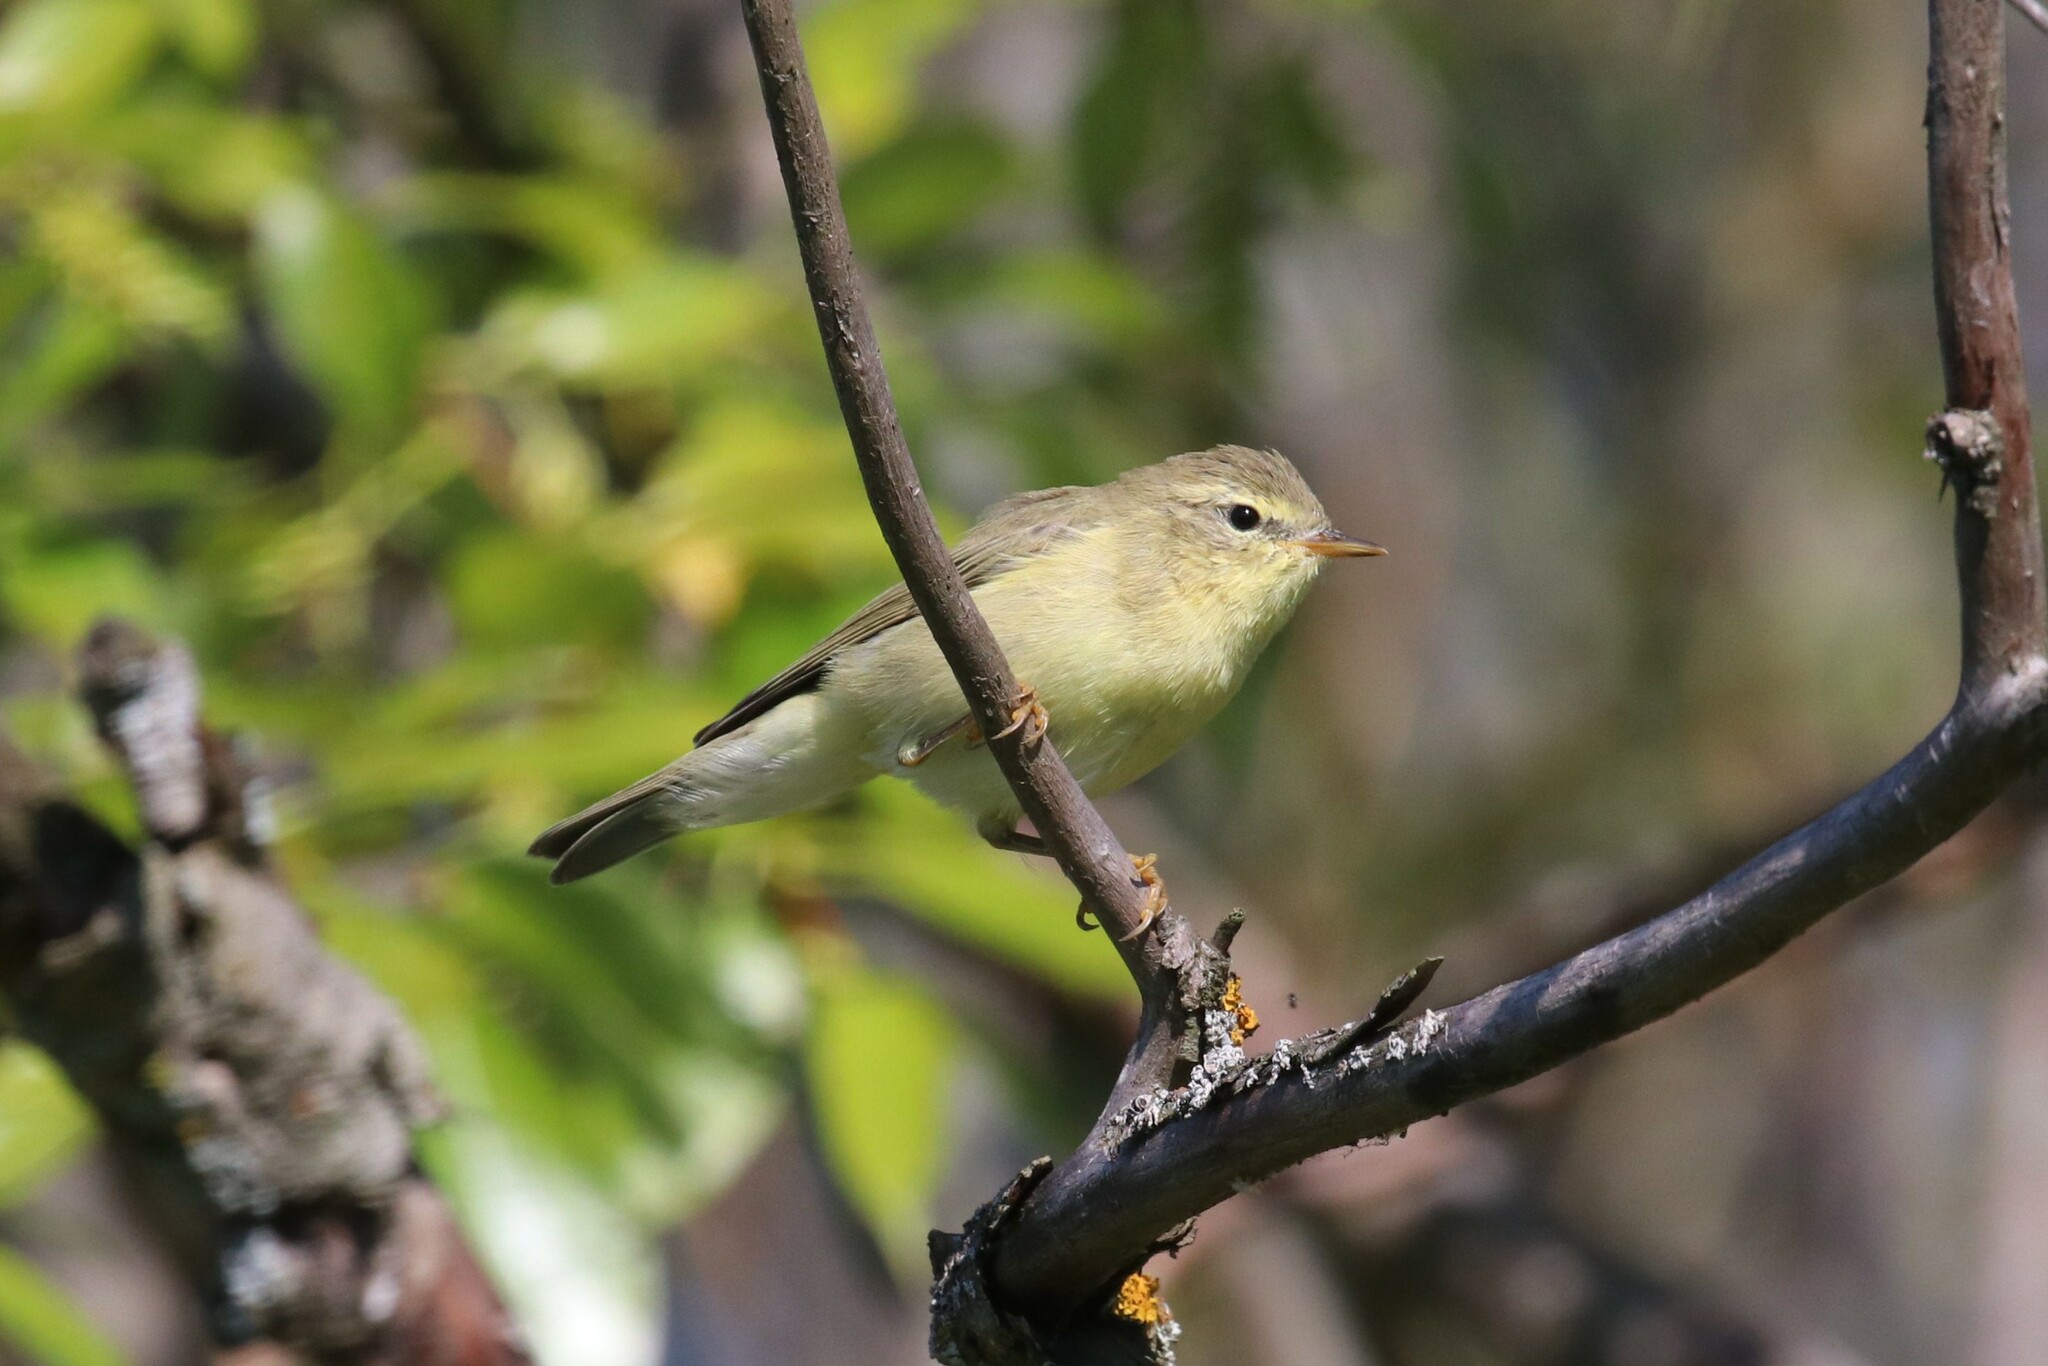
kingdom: Animalia
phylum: Chordata
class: Aves
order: Passeriformes
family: Phylloscopidae
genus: Phylloscopus
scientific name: Phylloscopus trochilus
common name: Willow warbler
